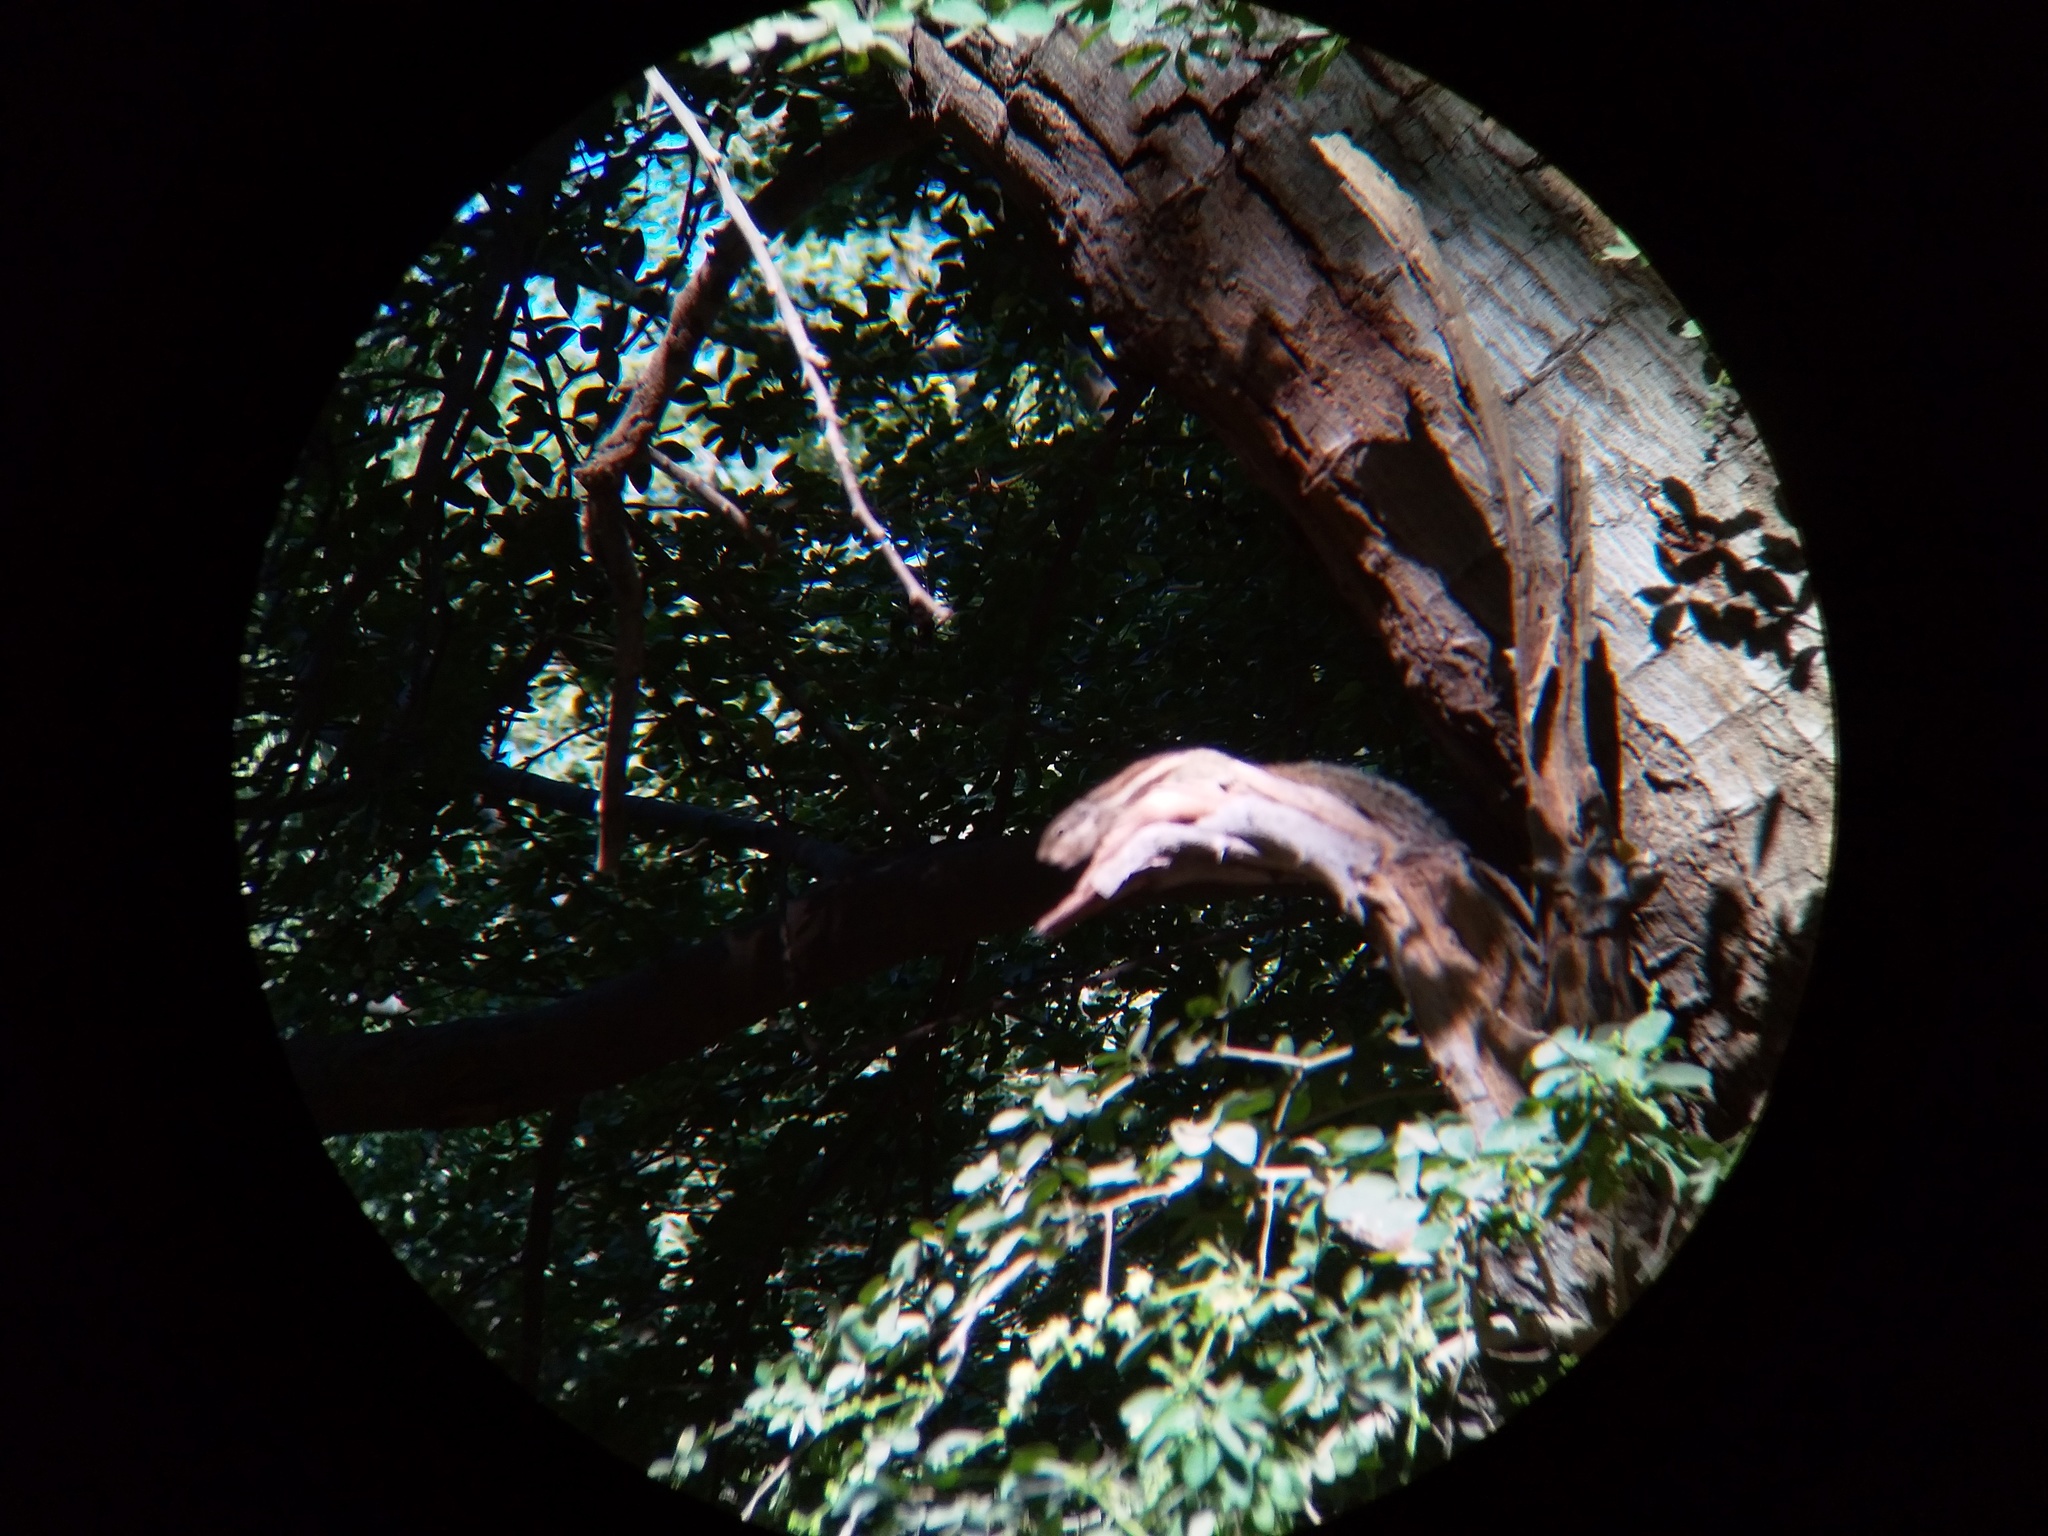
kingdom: Animalia
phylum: Chordata
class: Mammalia
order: Rodentia
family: Sciuridae
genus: Funambulus
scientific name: Funambulus pennantii
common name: Northern palm squirrel
